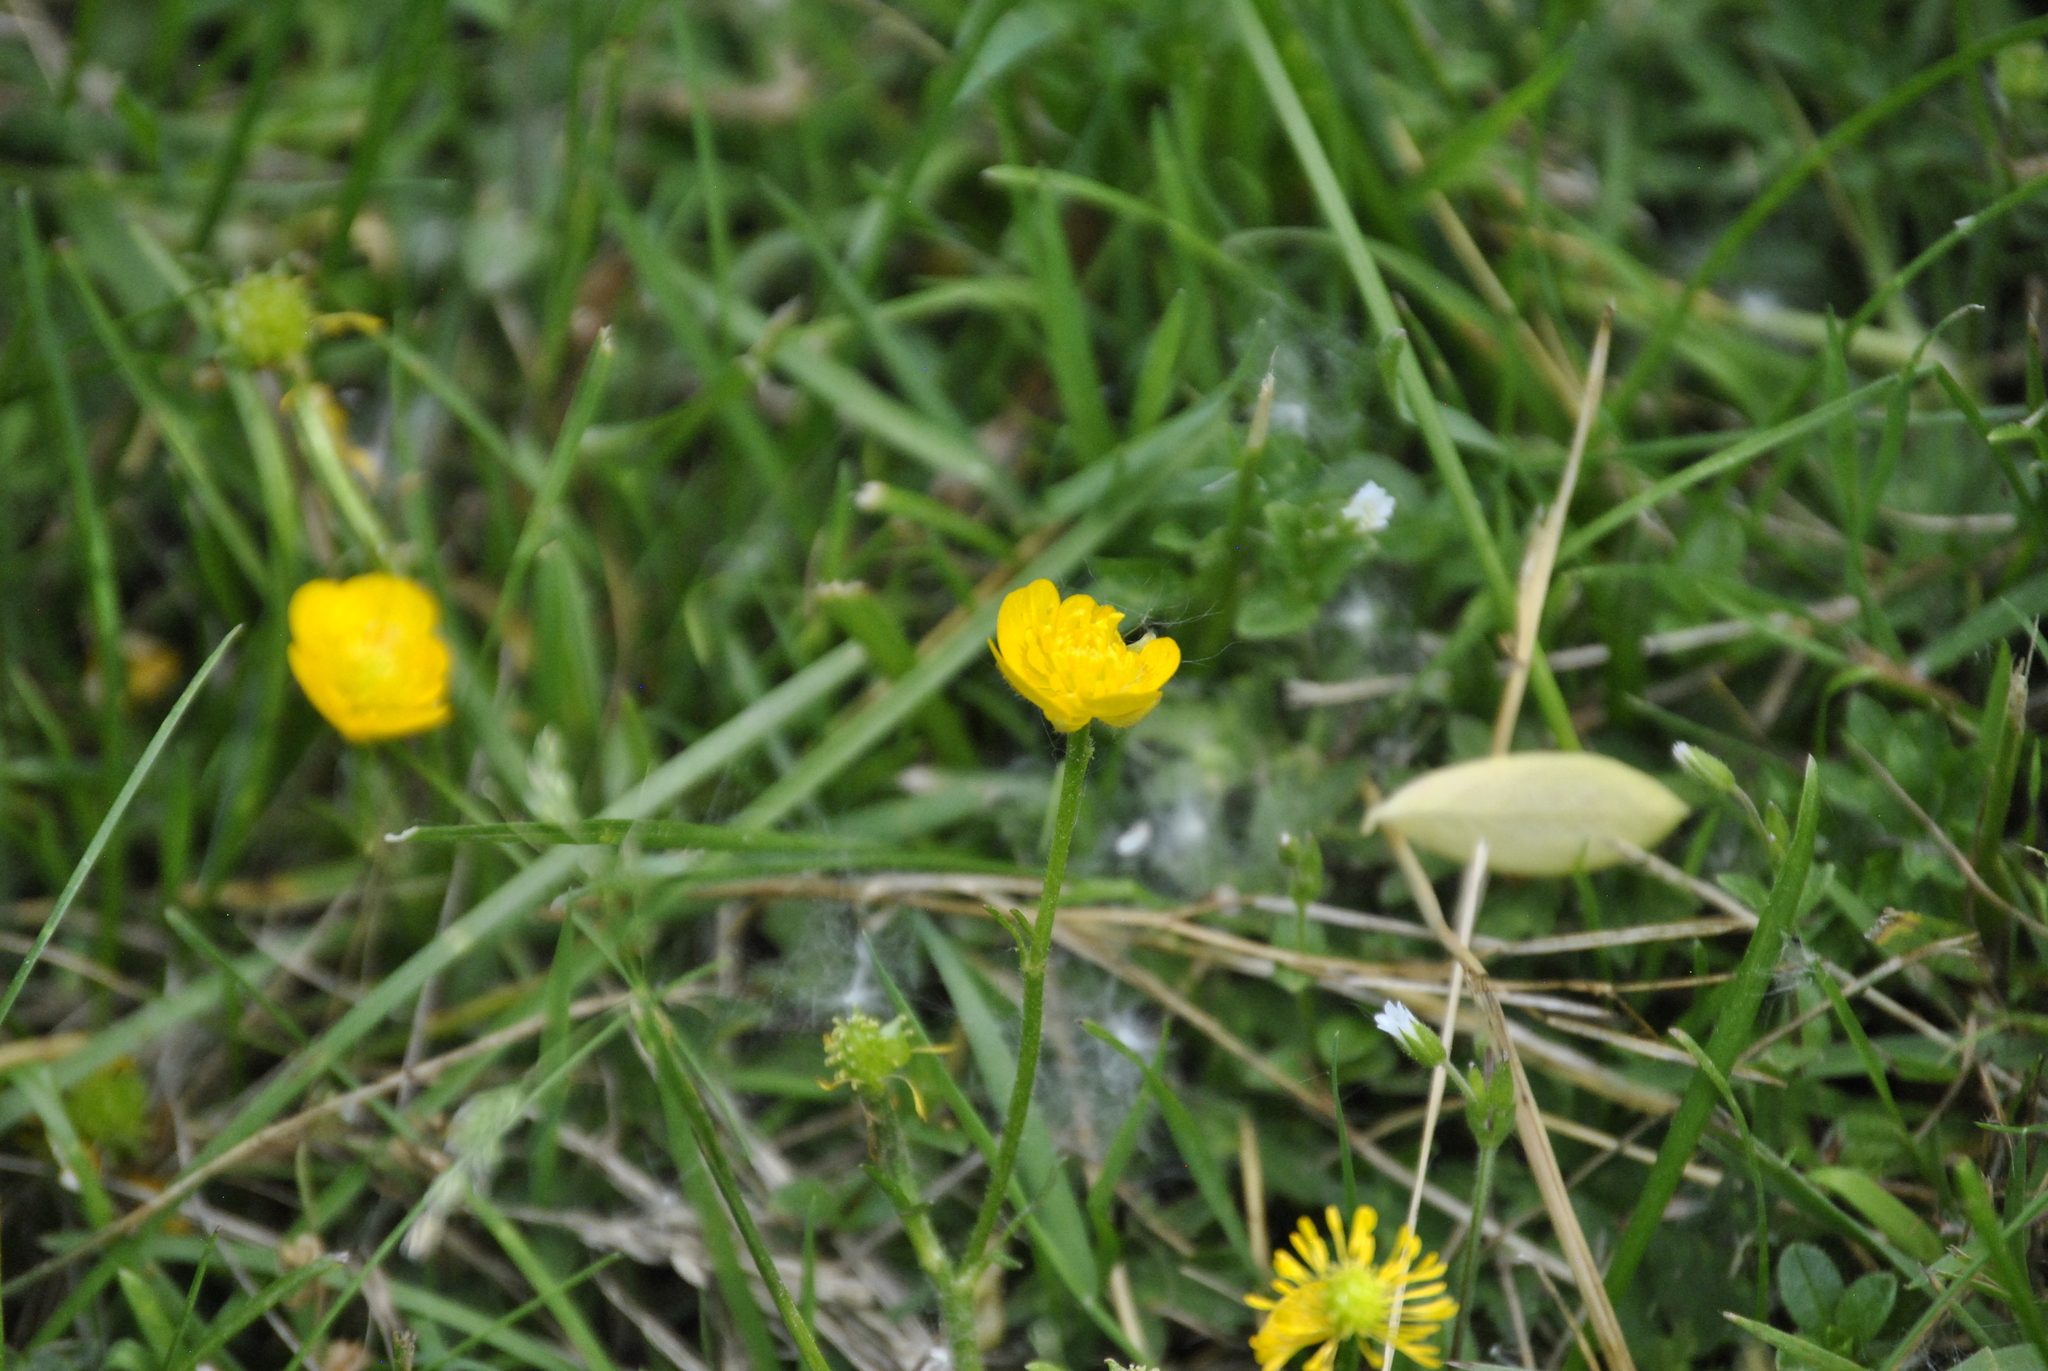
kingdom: Plantae
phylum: Tracheophyta
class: Magnoliopsida
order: Ranunculales
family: Ranunculaceae
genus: Ranunculus
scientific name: Ranunculus repens
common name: Creeping buttercup
